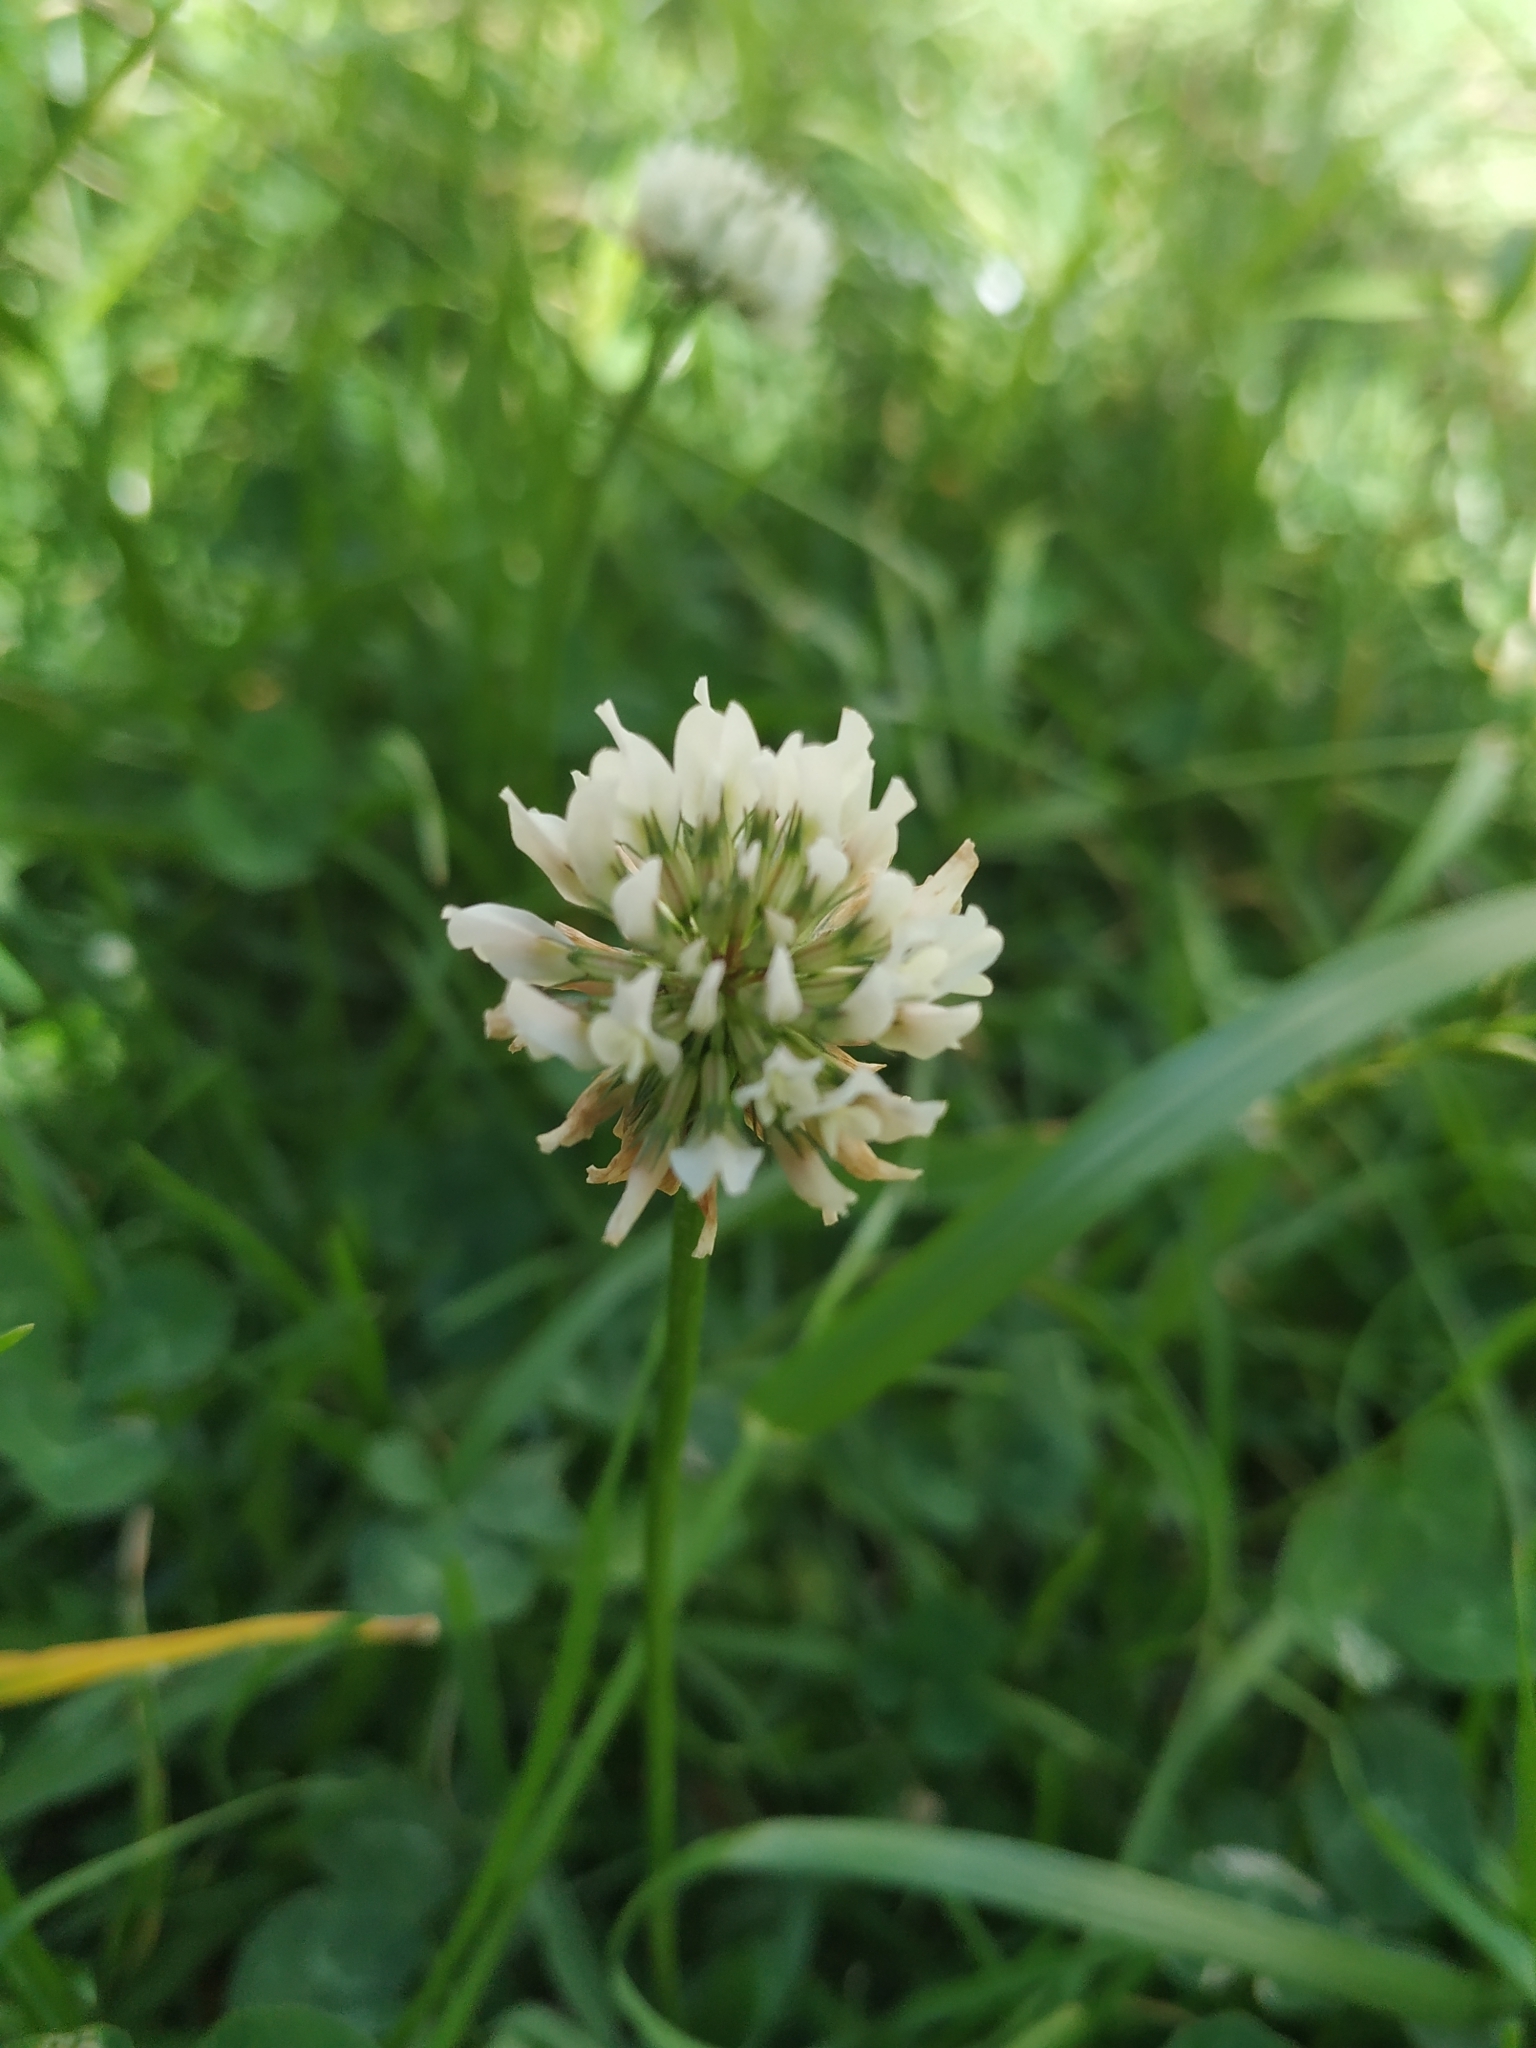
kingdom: Plantae
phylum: Tracheophyta
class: Magnoliopsida
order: Fabales
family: Fabaceae
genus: Trifolium
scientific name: Trifolium repens
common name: White clover
